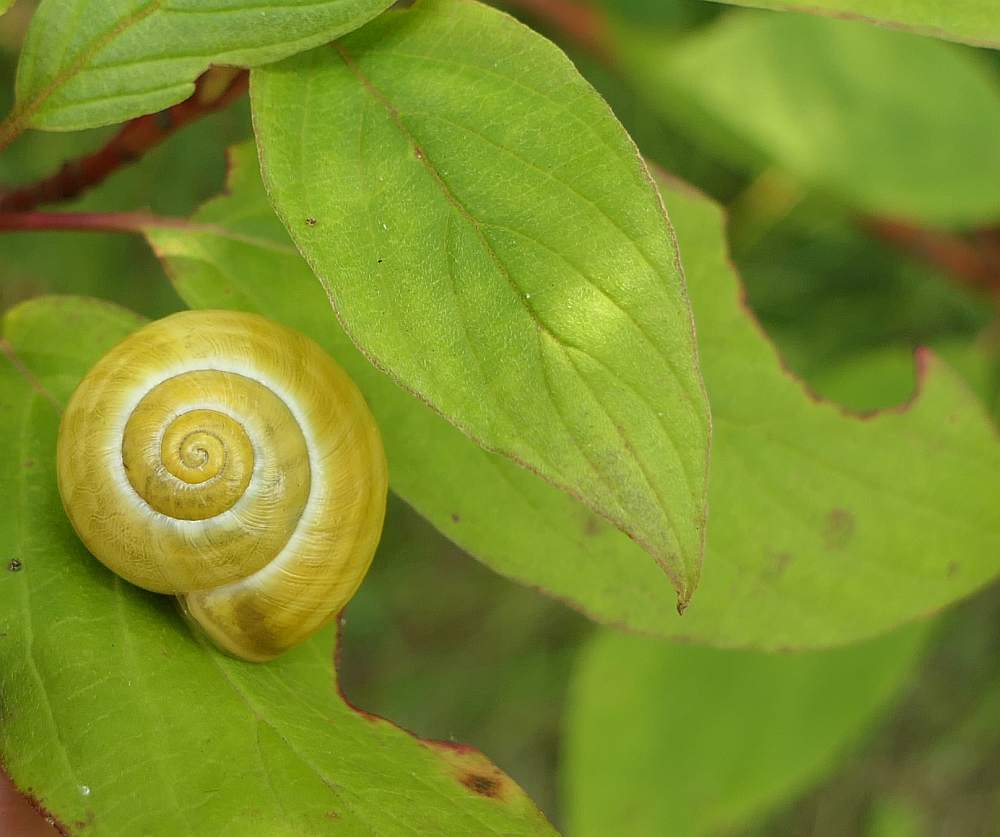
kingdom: Animalia
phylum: Mollusca
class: Gastropoda
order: Stylommatophora
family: Helicidae
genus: Cepaea
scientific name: Cepaea
